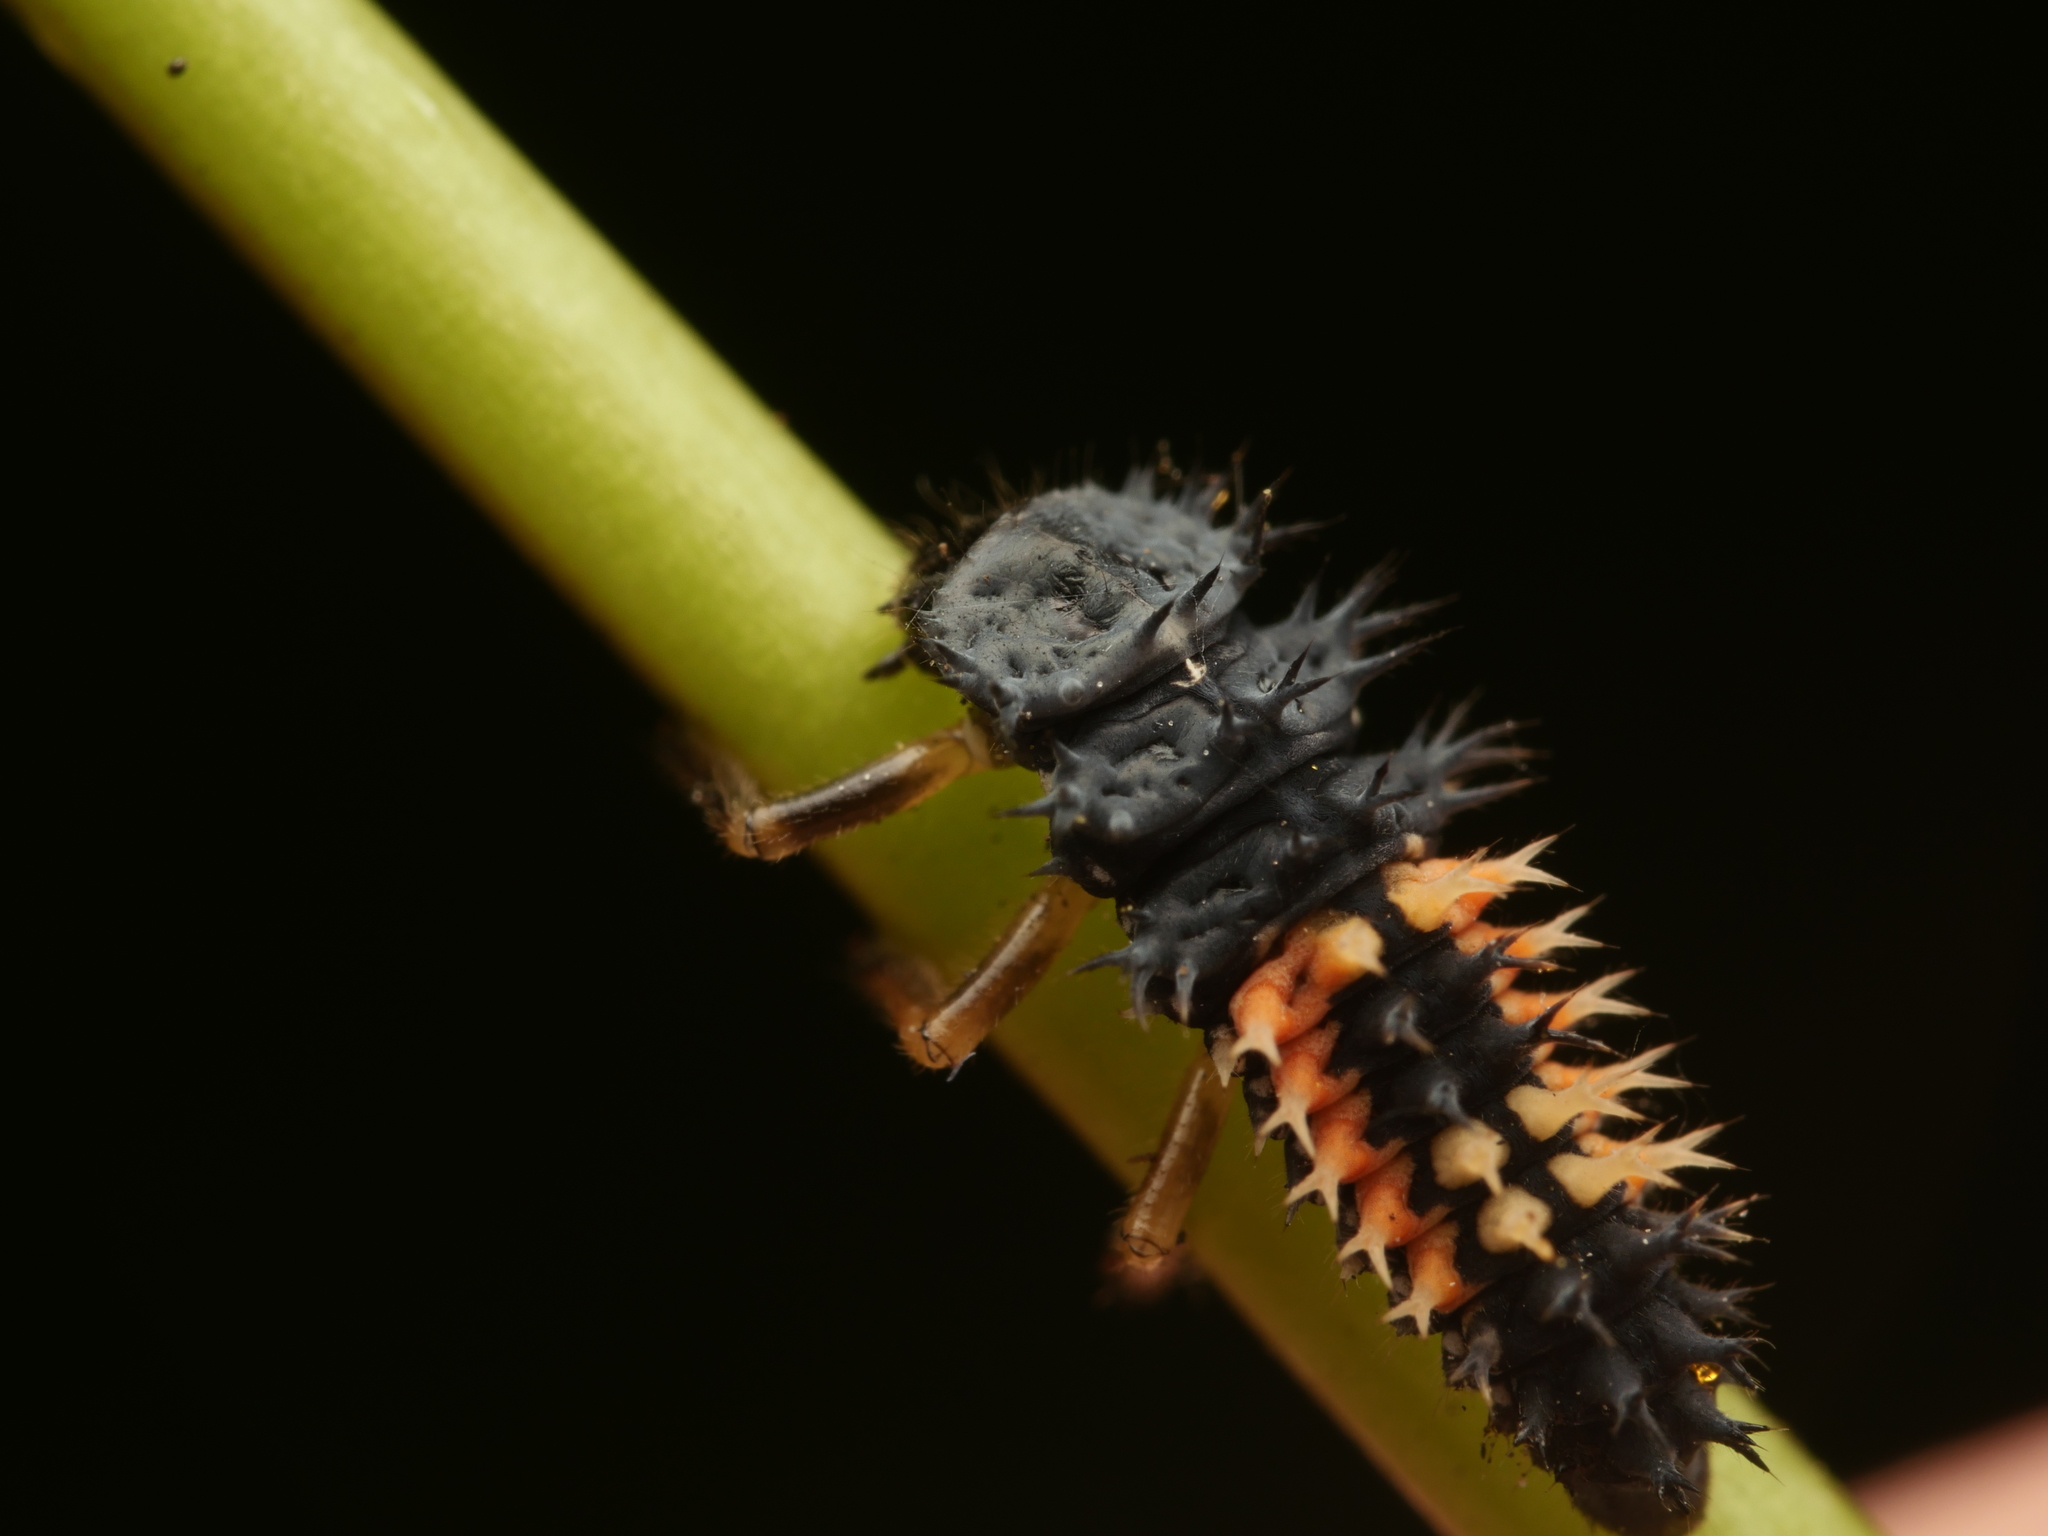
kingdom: Animalia
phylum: Arthropoda
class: Insecta
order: Coleoptera
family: Coccinellidae
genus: Harmonia
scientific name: Harmonia axyridis
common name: Harlequin ladybird
